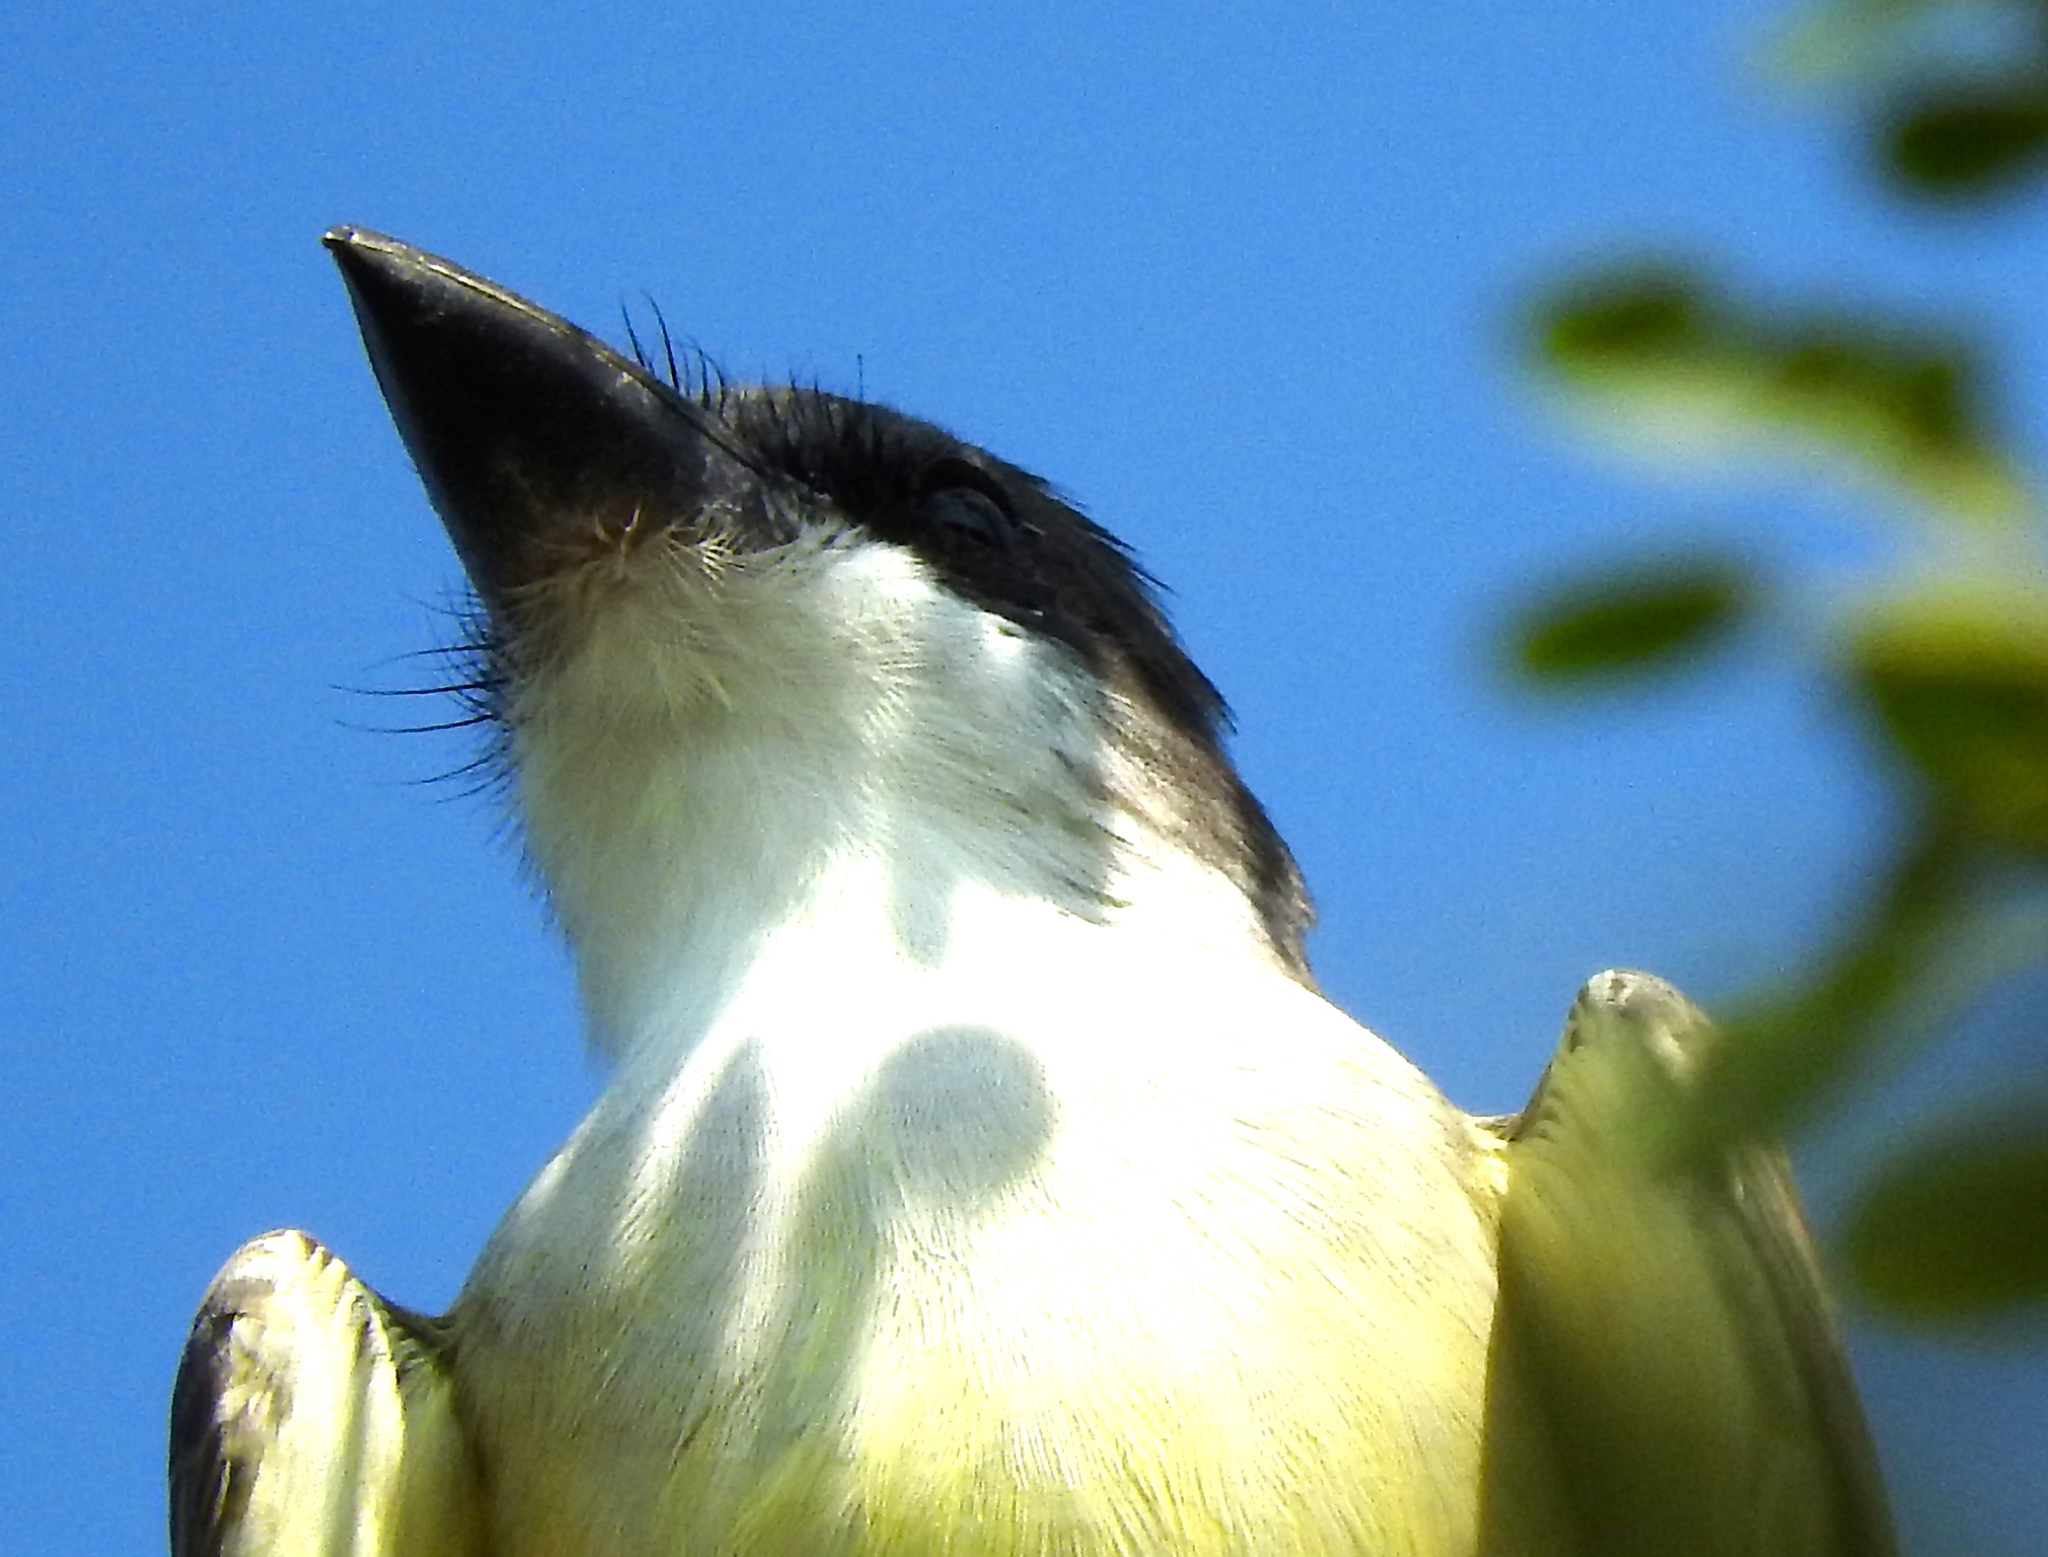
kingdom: Animalia
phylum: Chordata
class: Aves
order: Passeriformes
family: Tyrannidae
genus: Tyrannus
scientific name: Tyrannus crassirostris
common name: Thick-billed kingbird
